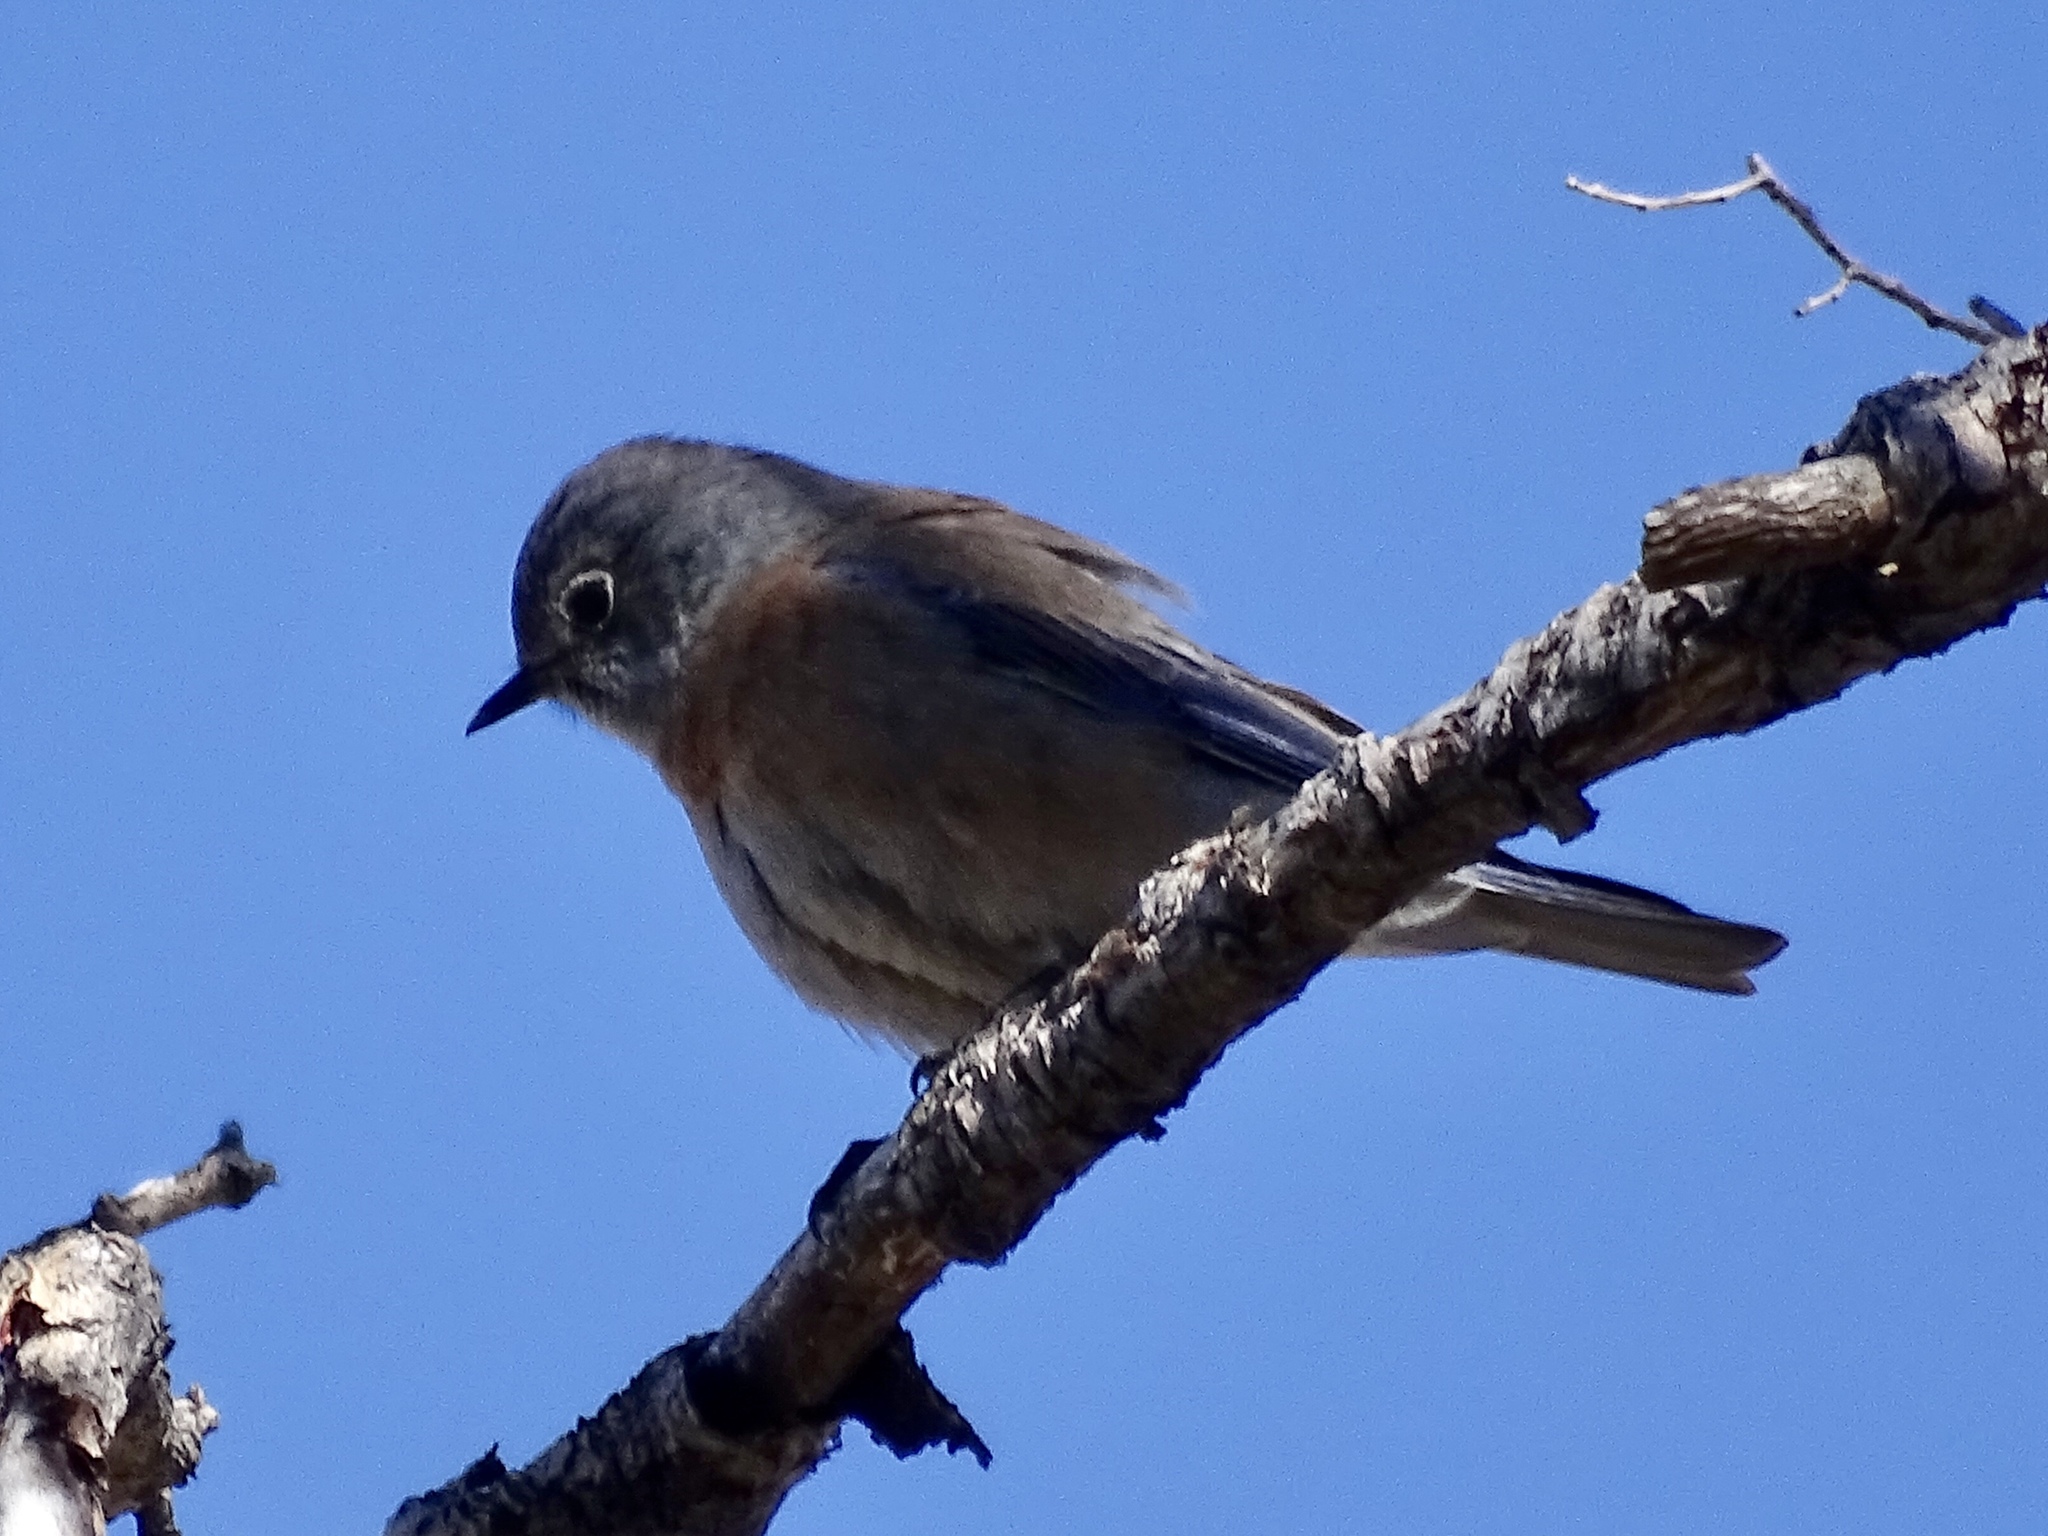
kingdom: Animalia
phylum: Chordata
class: Aves
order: Passeriformes
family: Turdidae
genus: Sialia
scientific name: Sialia mexicana
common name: Western bluebird
